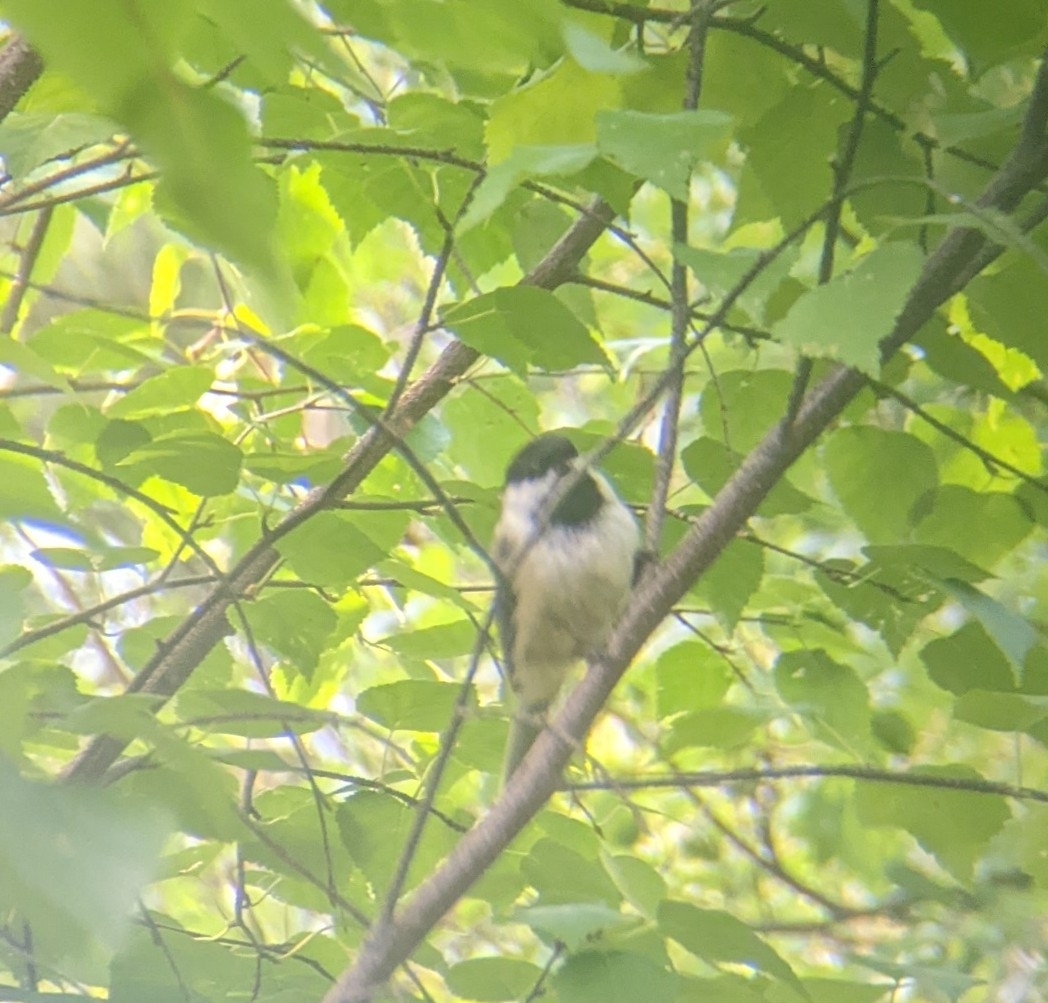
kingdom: Animalia
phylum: Chordata
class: Aves
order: Passeriformes
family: Paridae
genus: Poecile
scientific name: Poecile atricapillus
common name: Black-capped chickadee
